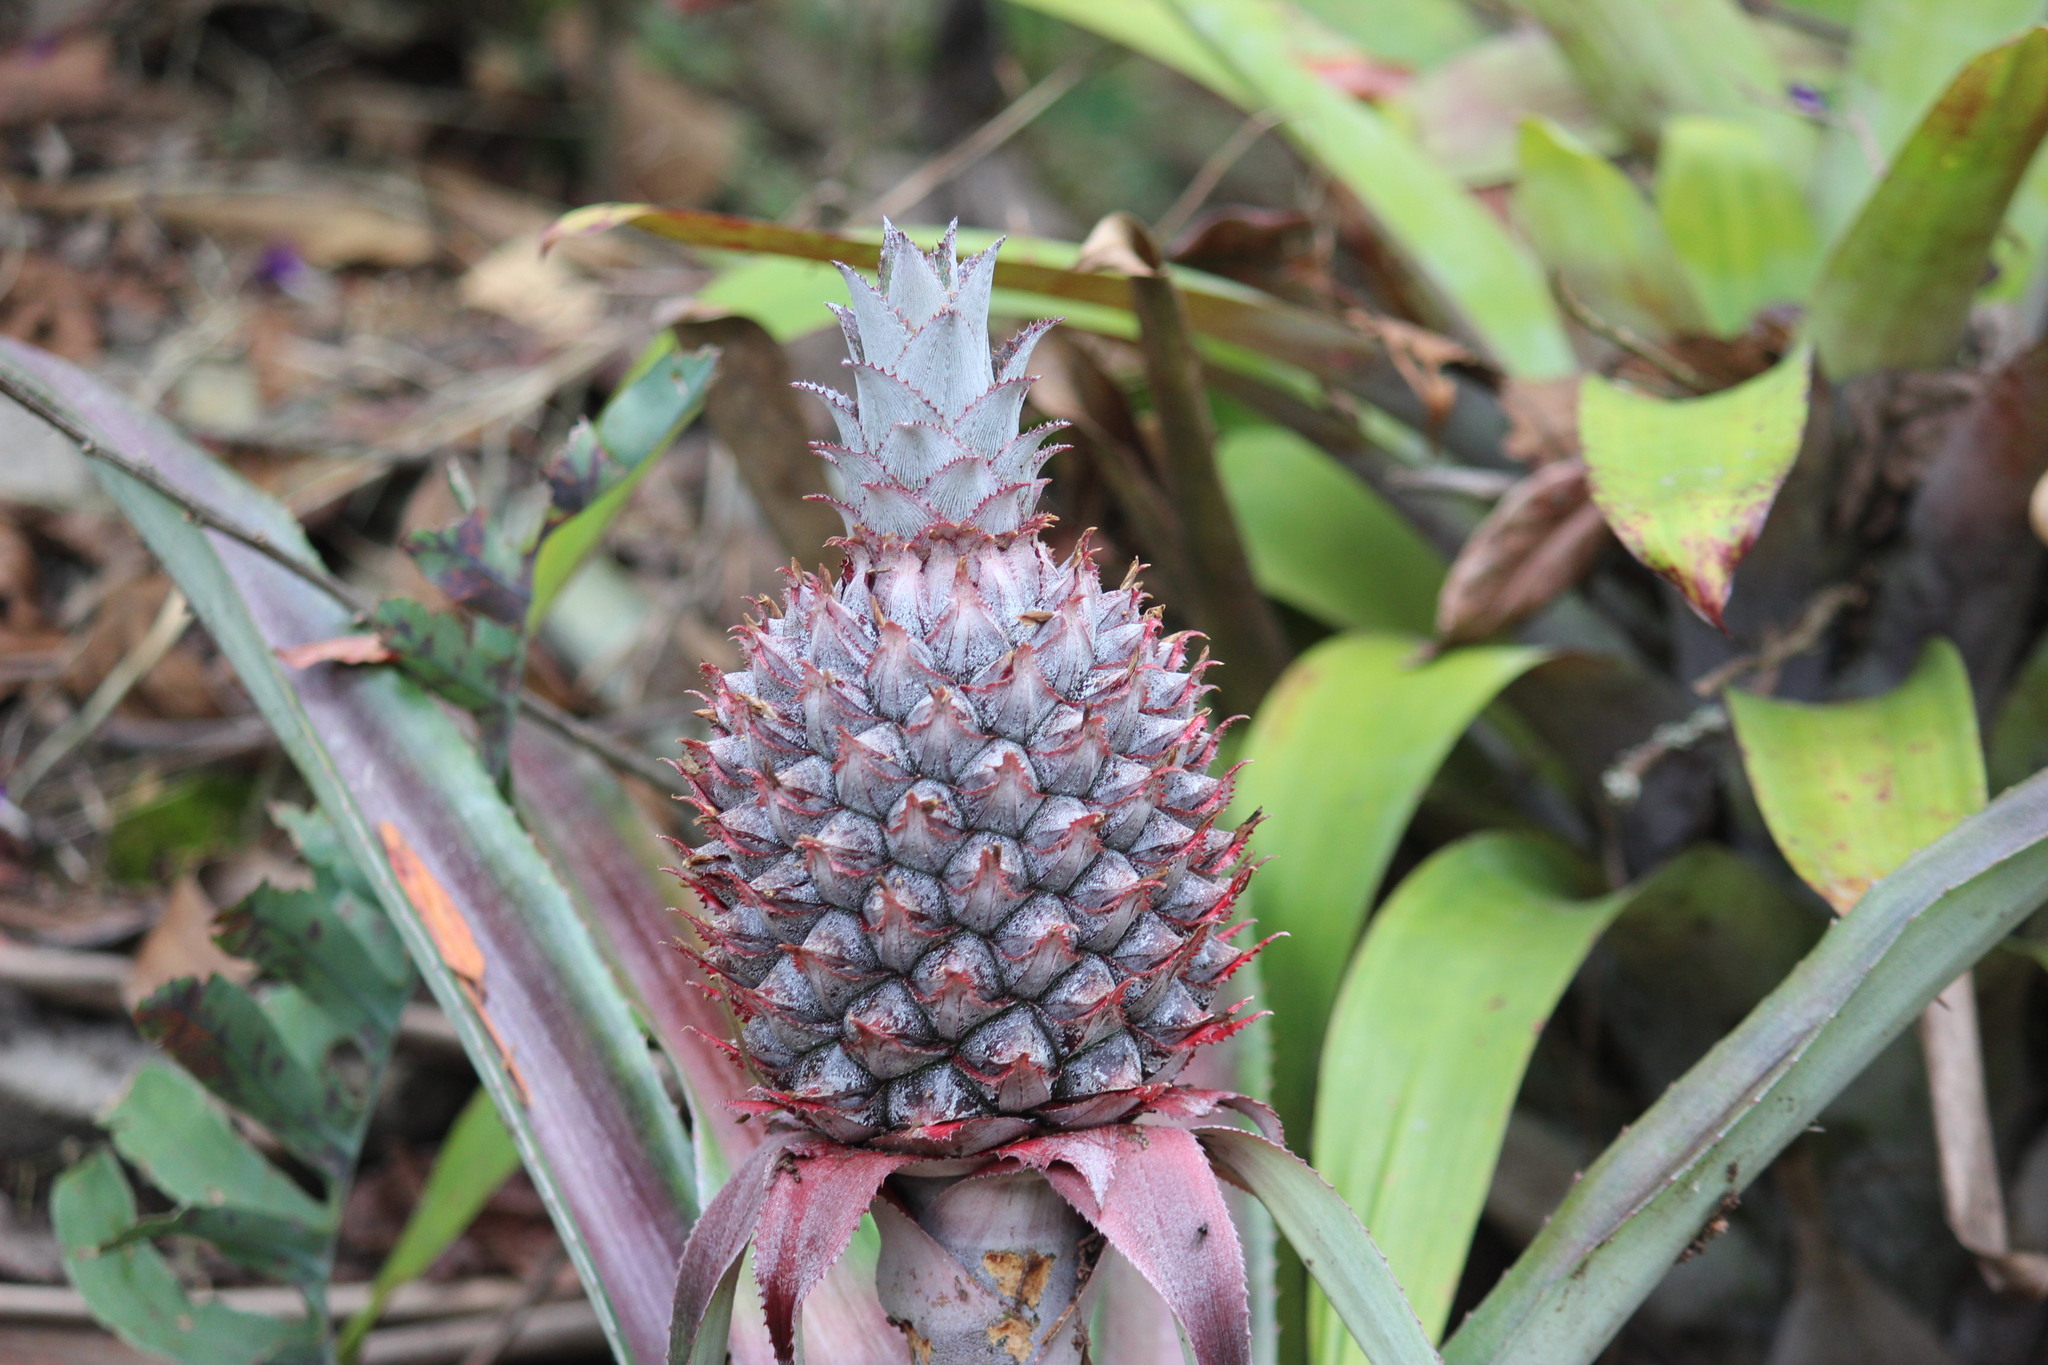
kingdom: Plantae
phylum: Tracheophyta
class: Liliopsida
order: Poales
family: Bromeliaceae
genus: Ananas
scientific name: Ananas comosus
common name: Pineapple
